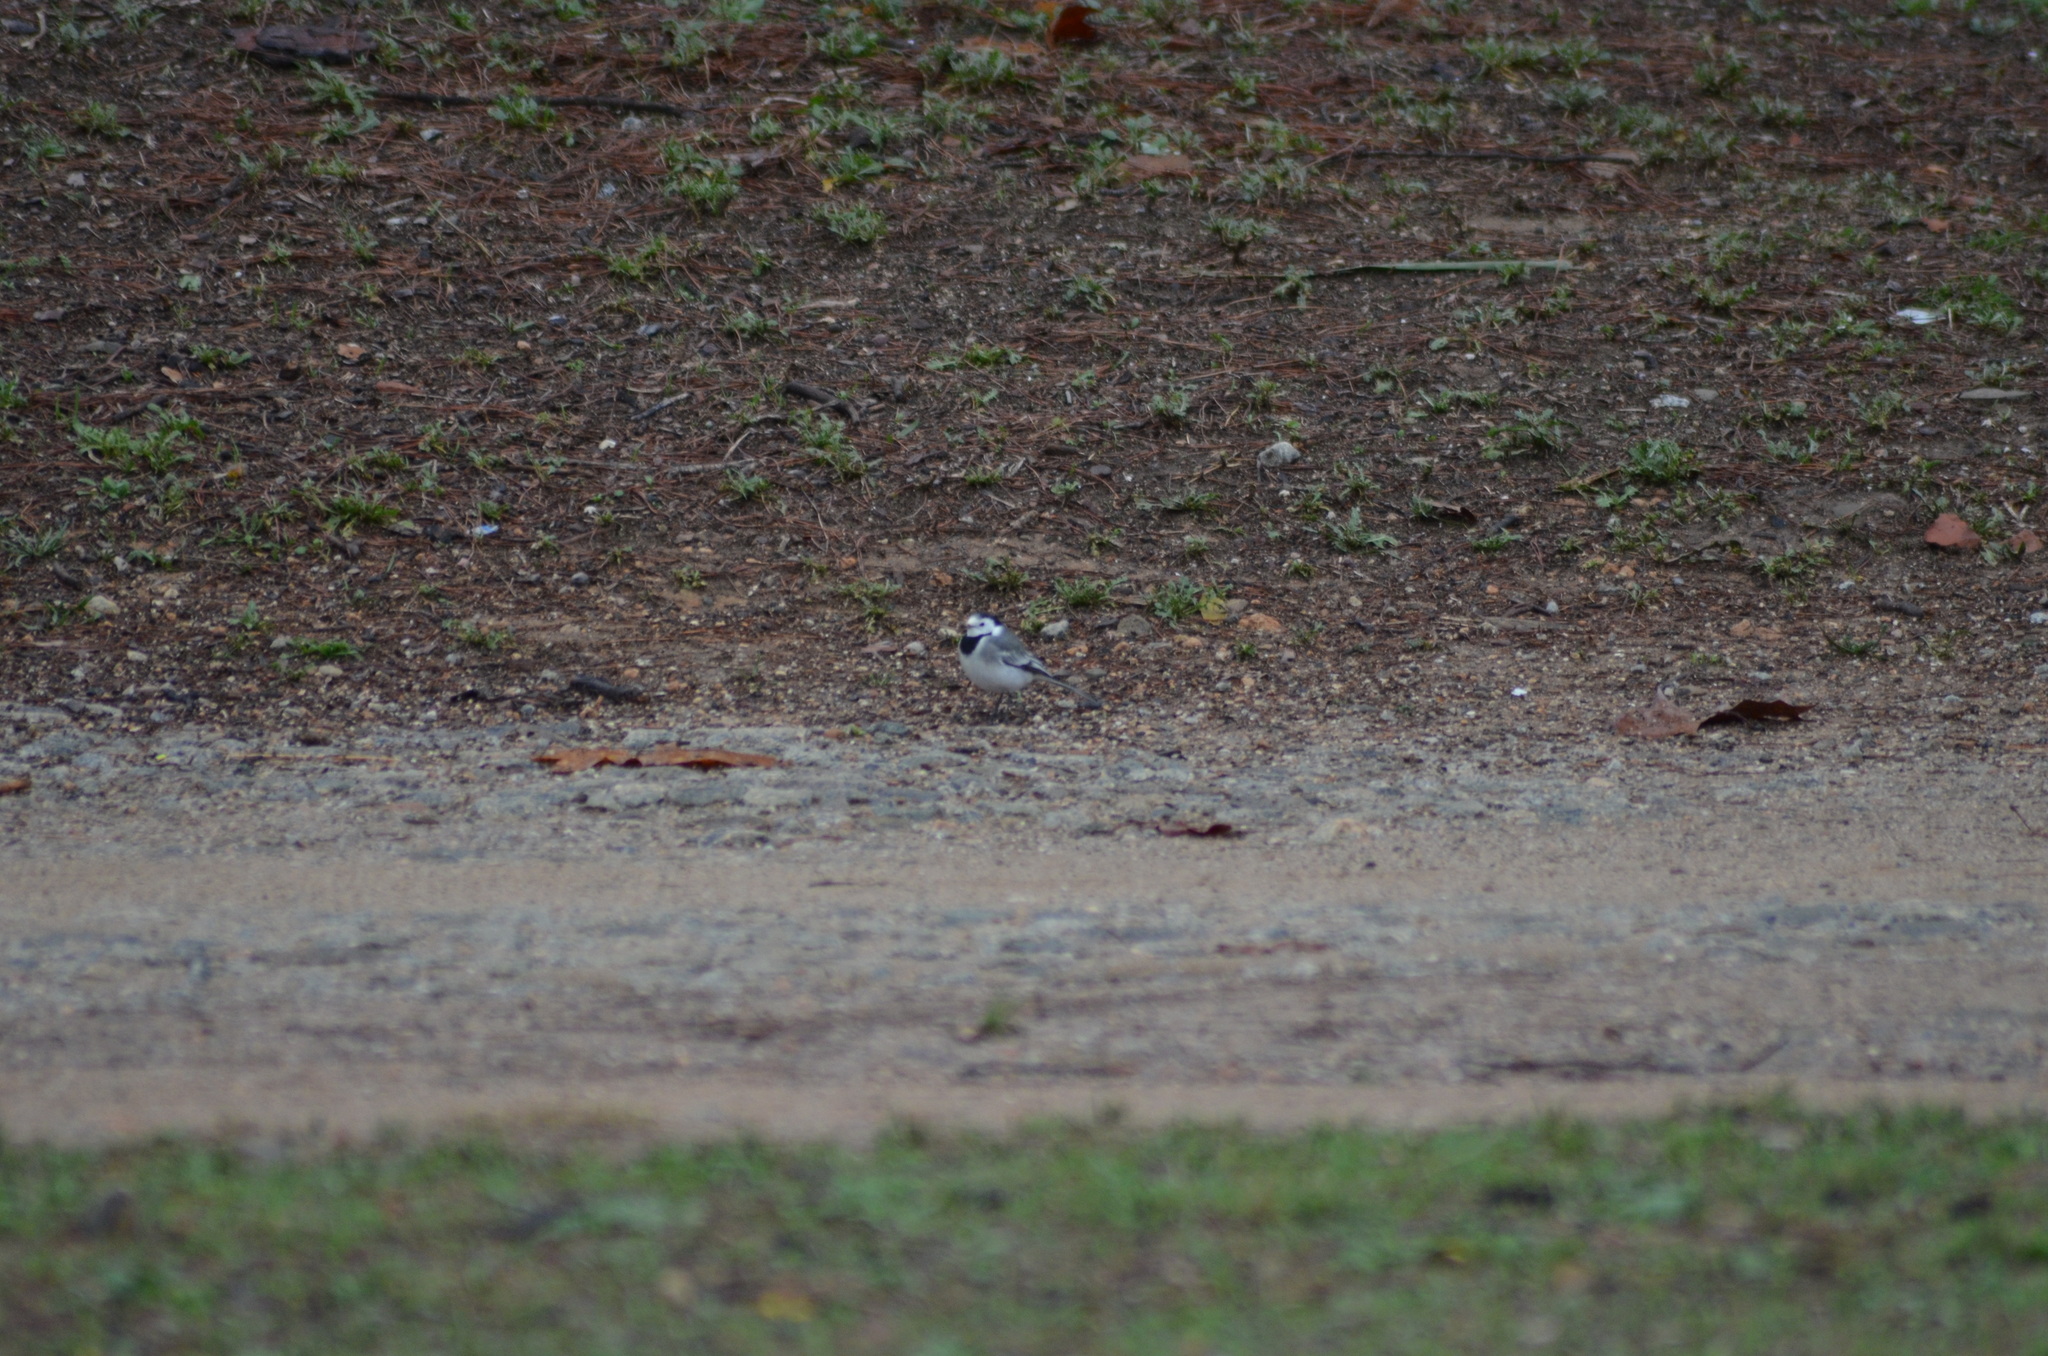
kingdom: Animalia
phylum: Chordata
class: Aves
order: Passeriformes
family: Motacillidae
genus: Motacilla
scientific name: Motacilla alba
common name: White wagtail
